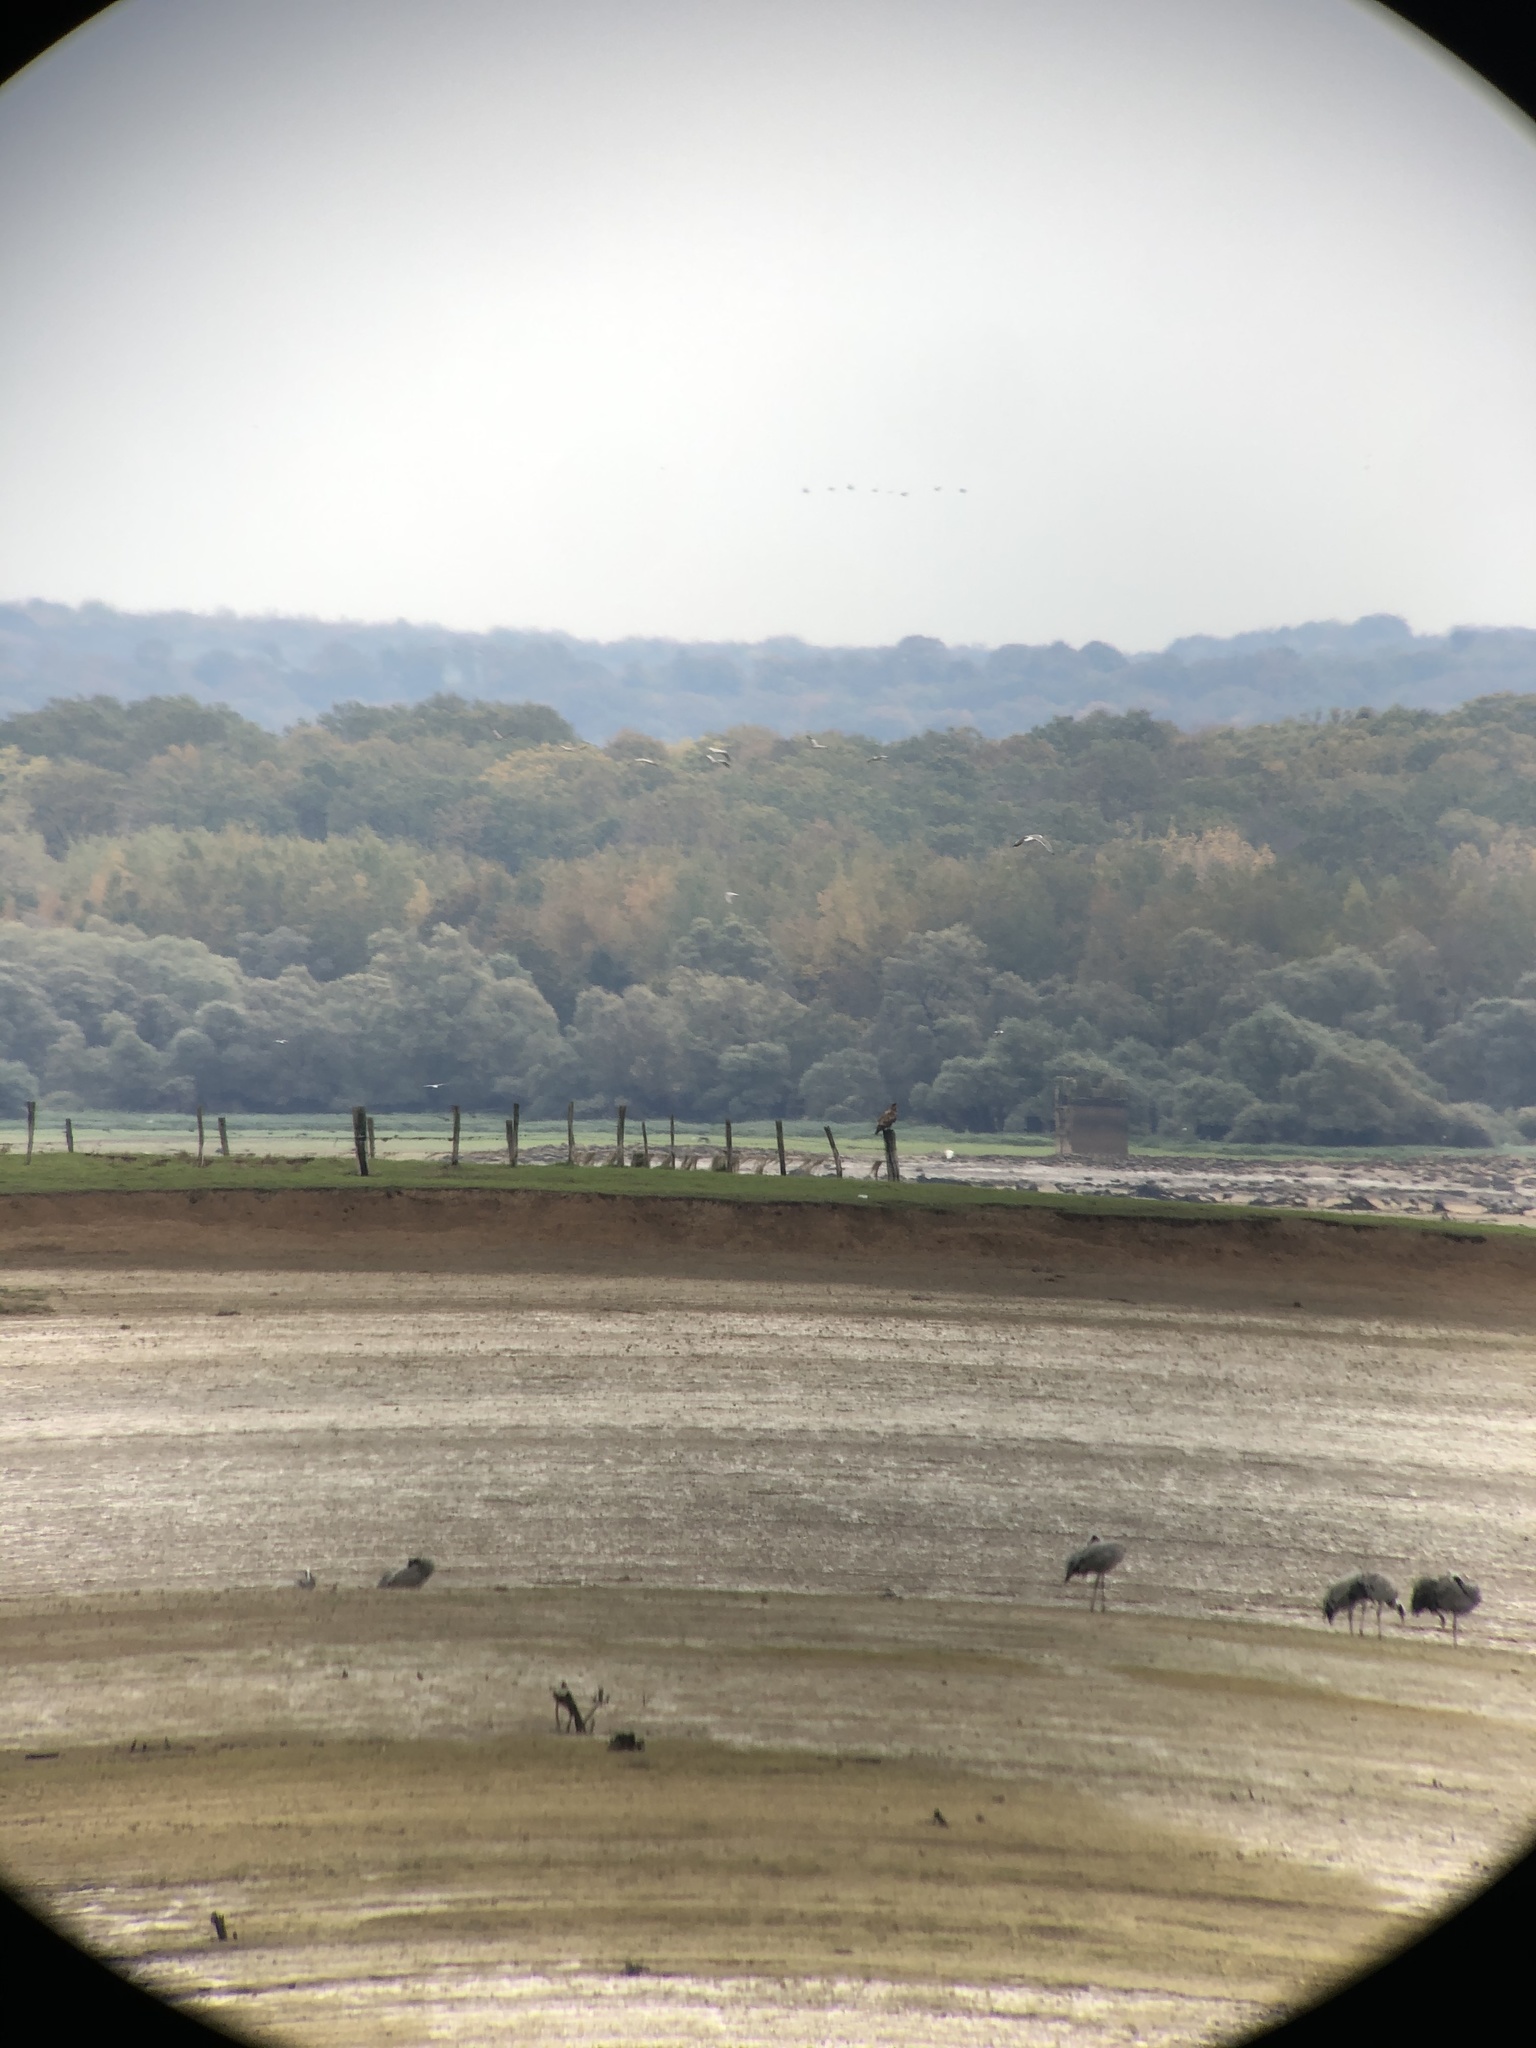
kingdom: Animalia
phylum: Chordata
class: Aves
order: Accipitriformes
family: Accipitridae
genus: Haliaeetus
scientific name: Haliaeetus albicilla
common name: White-tailed eagle
